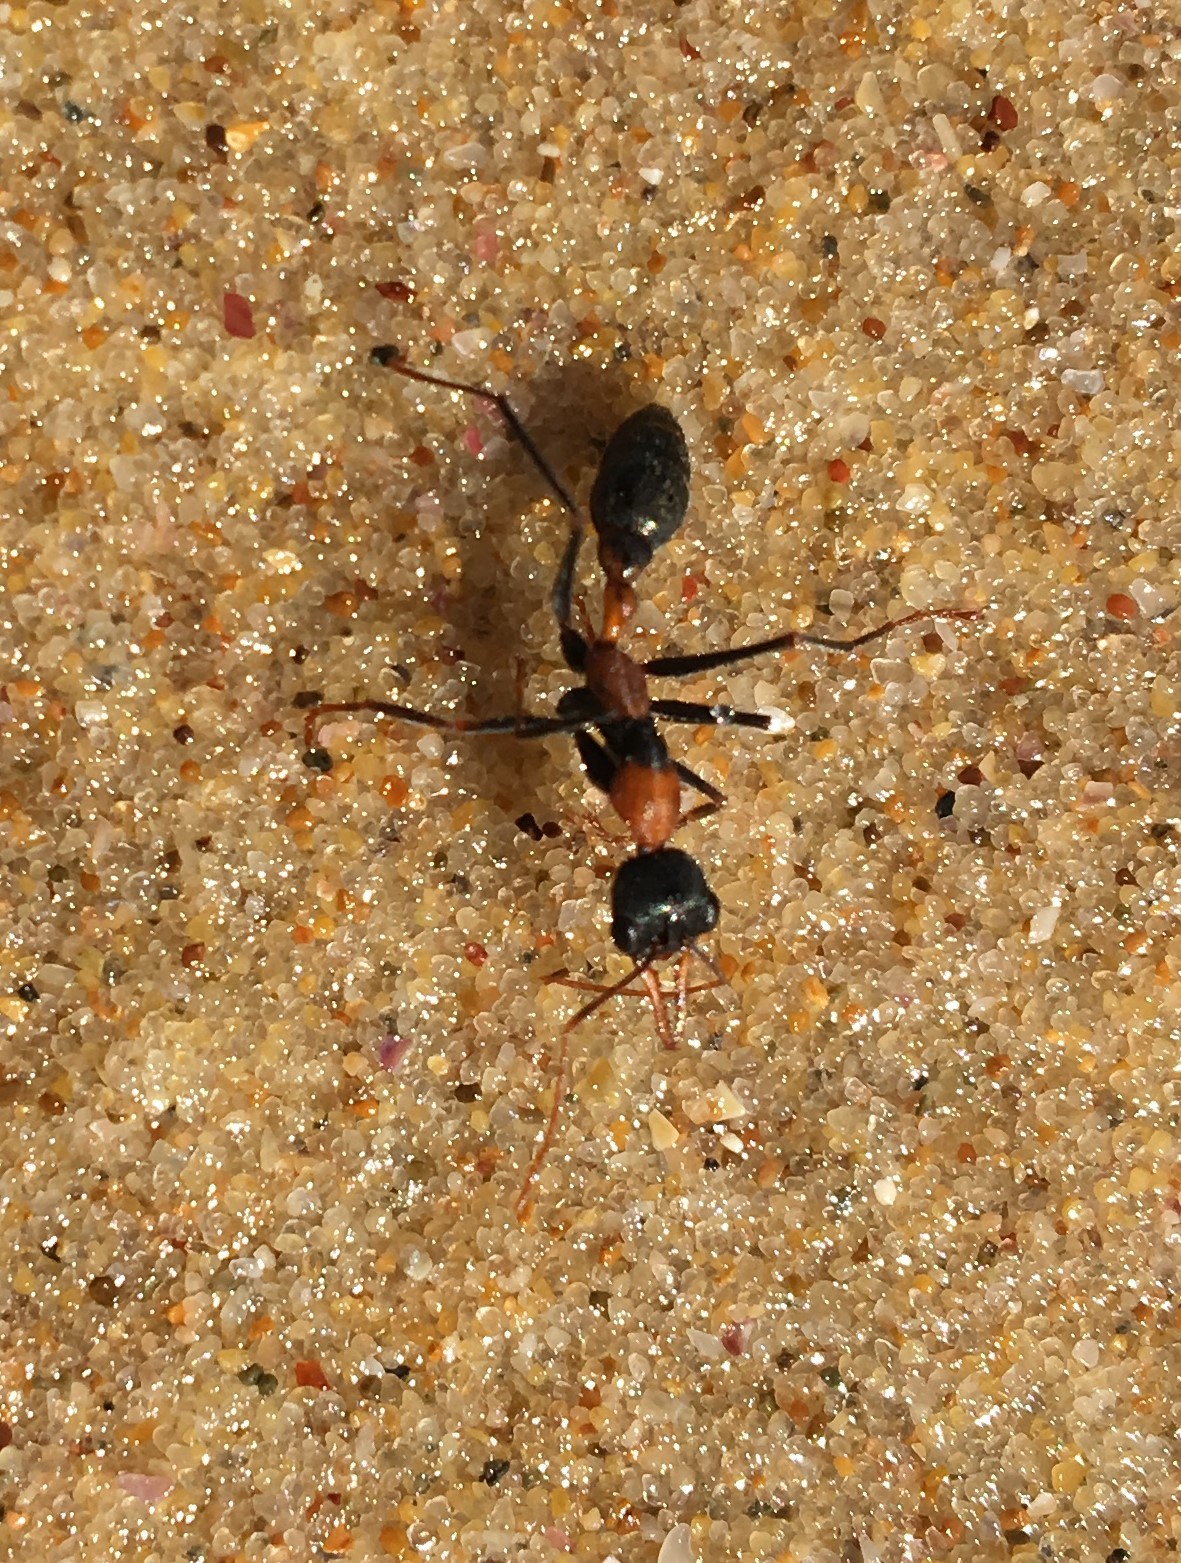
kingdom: Animalia
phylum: Arthropoda
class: Insecta
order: Hymenoptera
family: Formicidae
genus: Myrmecia
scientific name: Myrmecia nigrocincta
